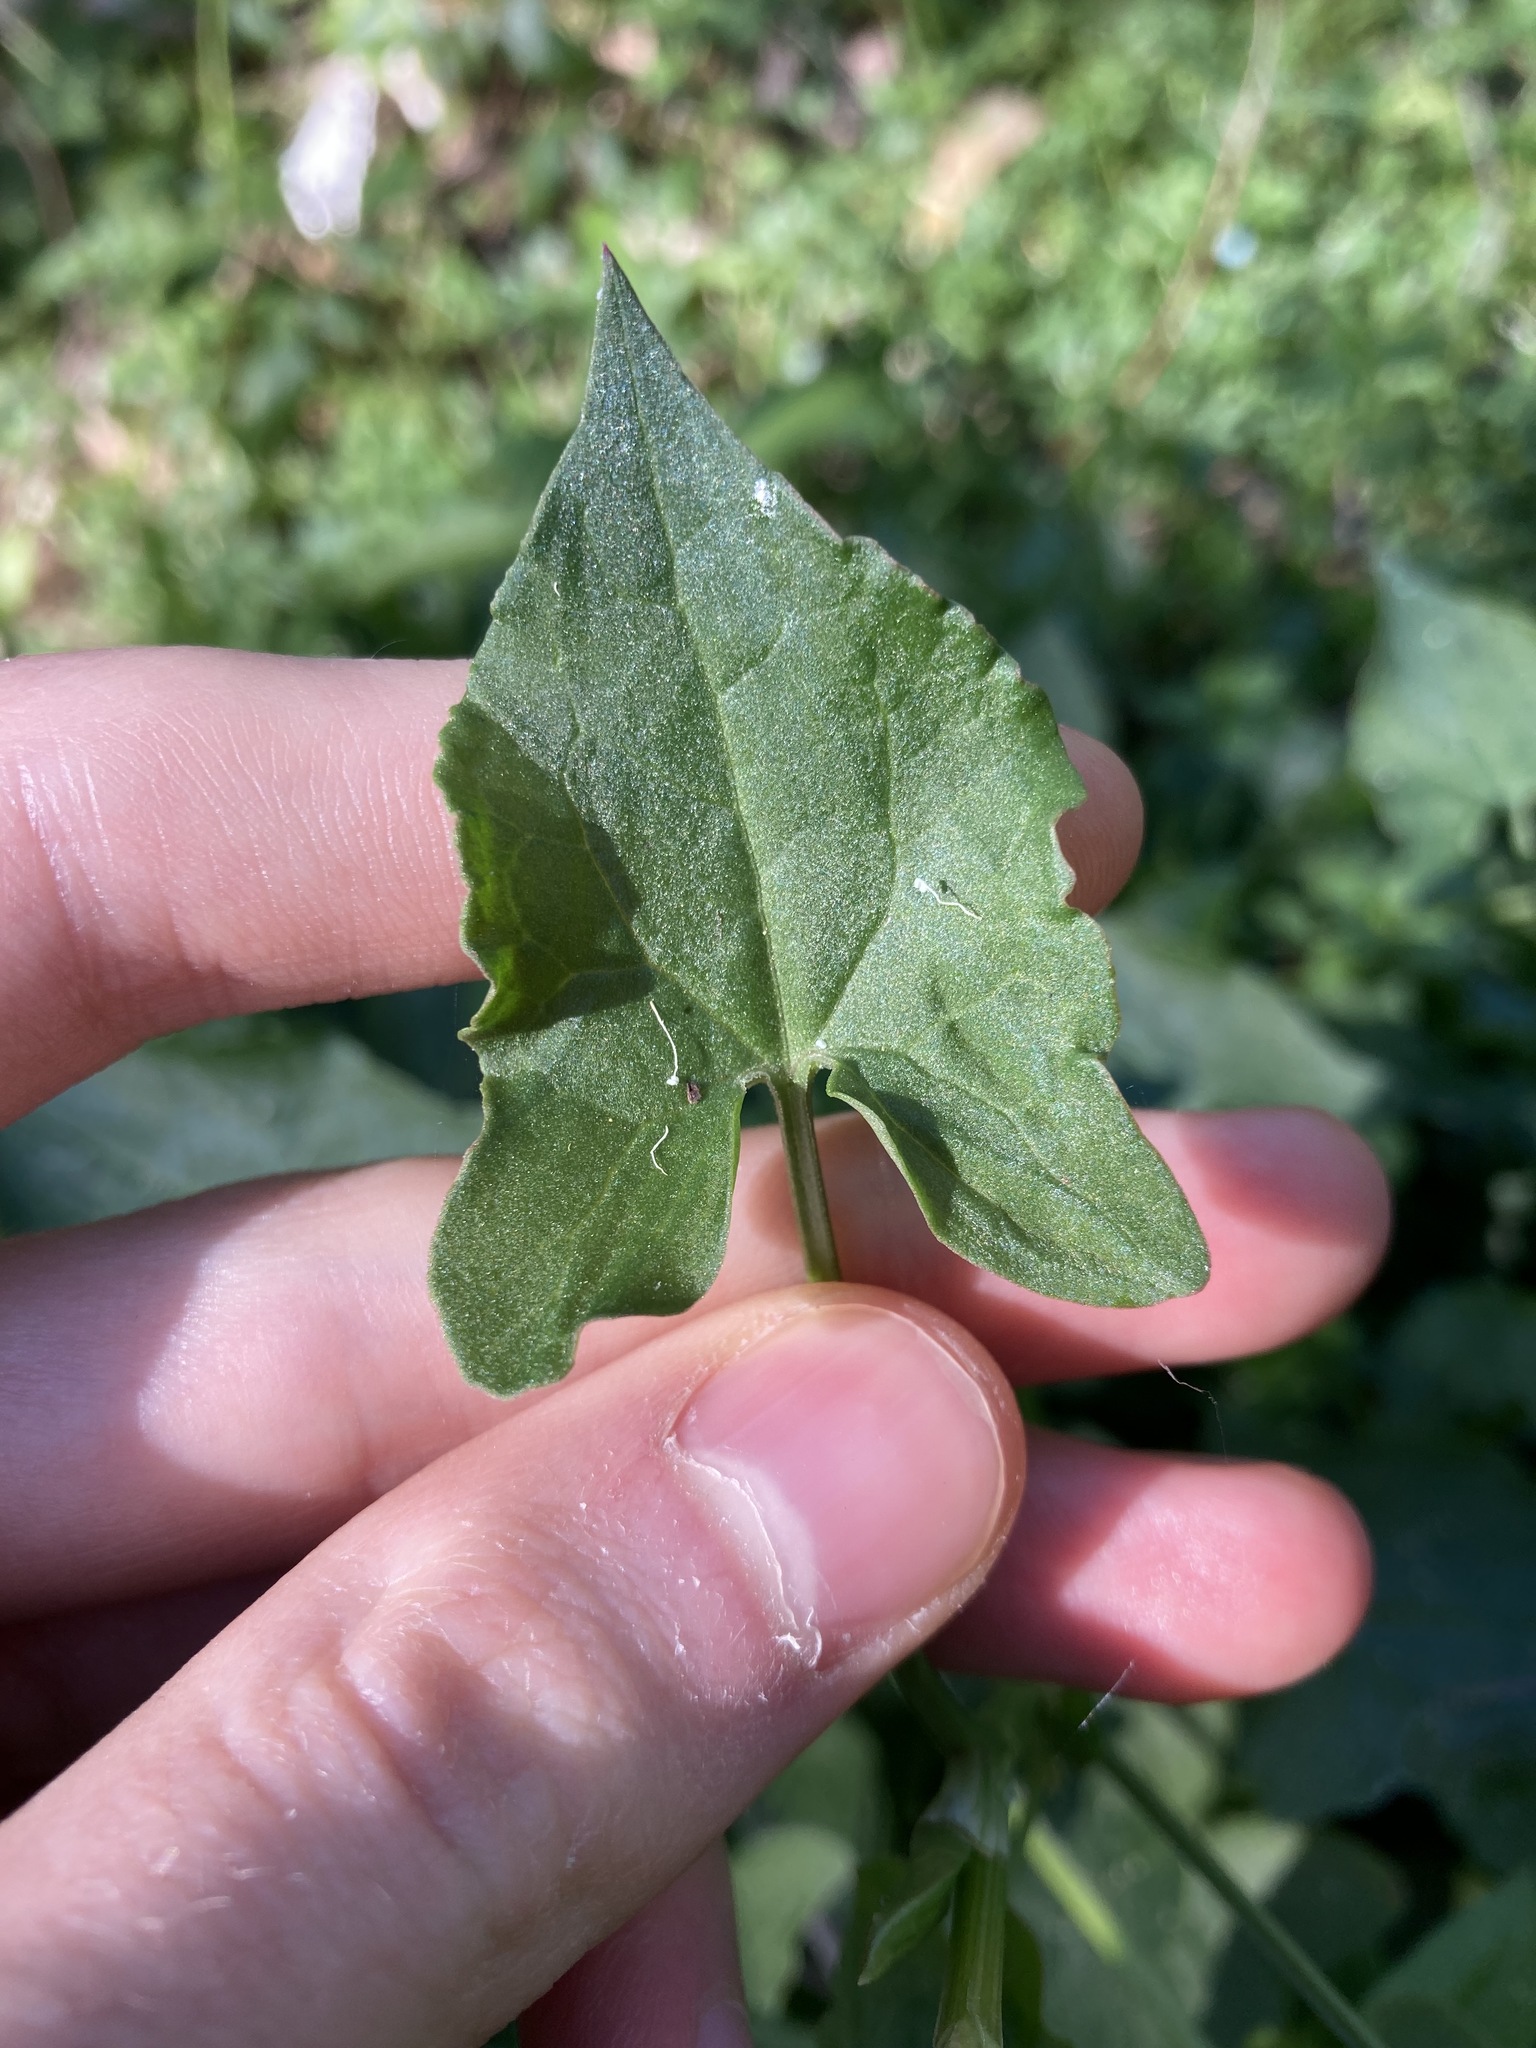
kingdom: Plantae
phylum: Tracheophyta
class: Magnoliopsida
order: Caryophyllales
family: Polygonaceae
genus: Rumex
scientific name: Rumex sagittatus
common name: Climbing dock
